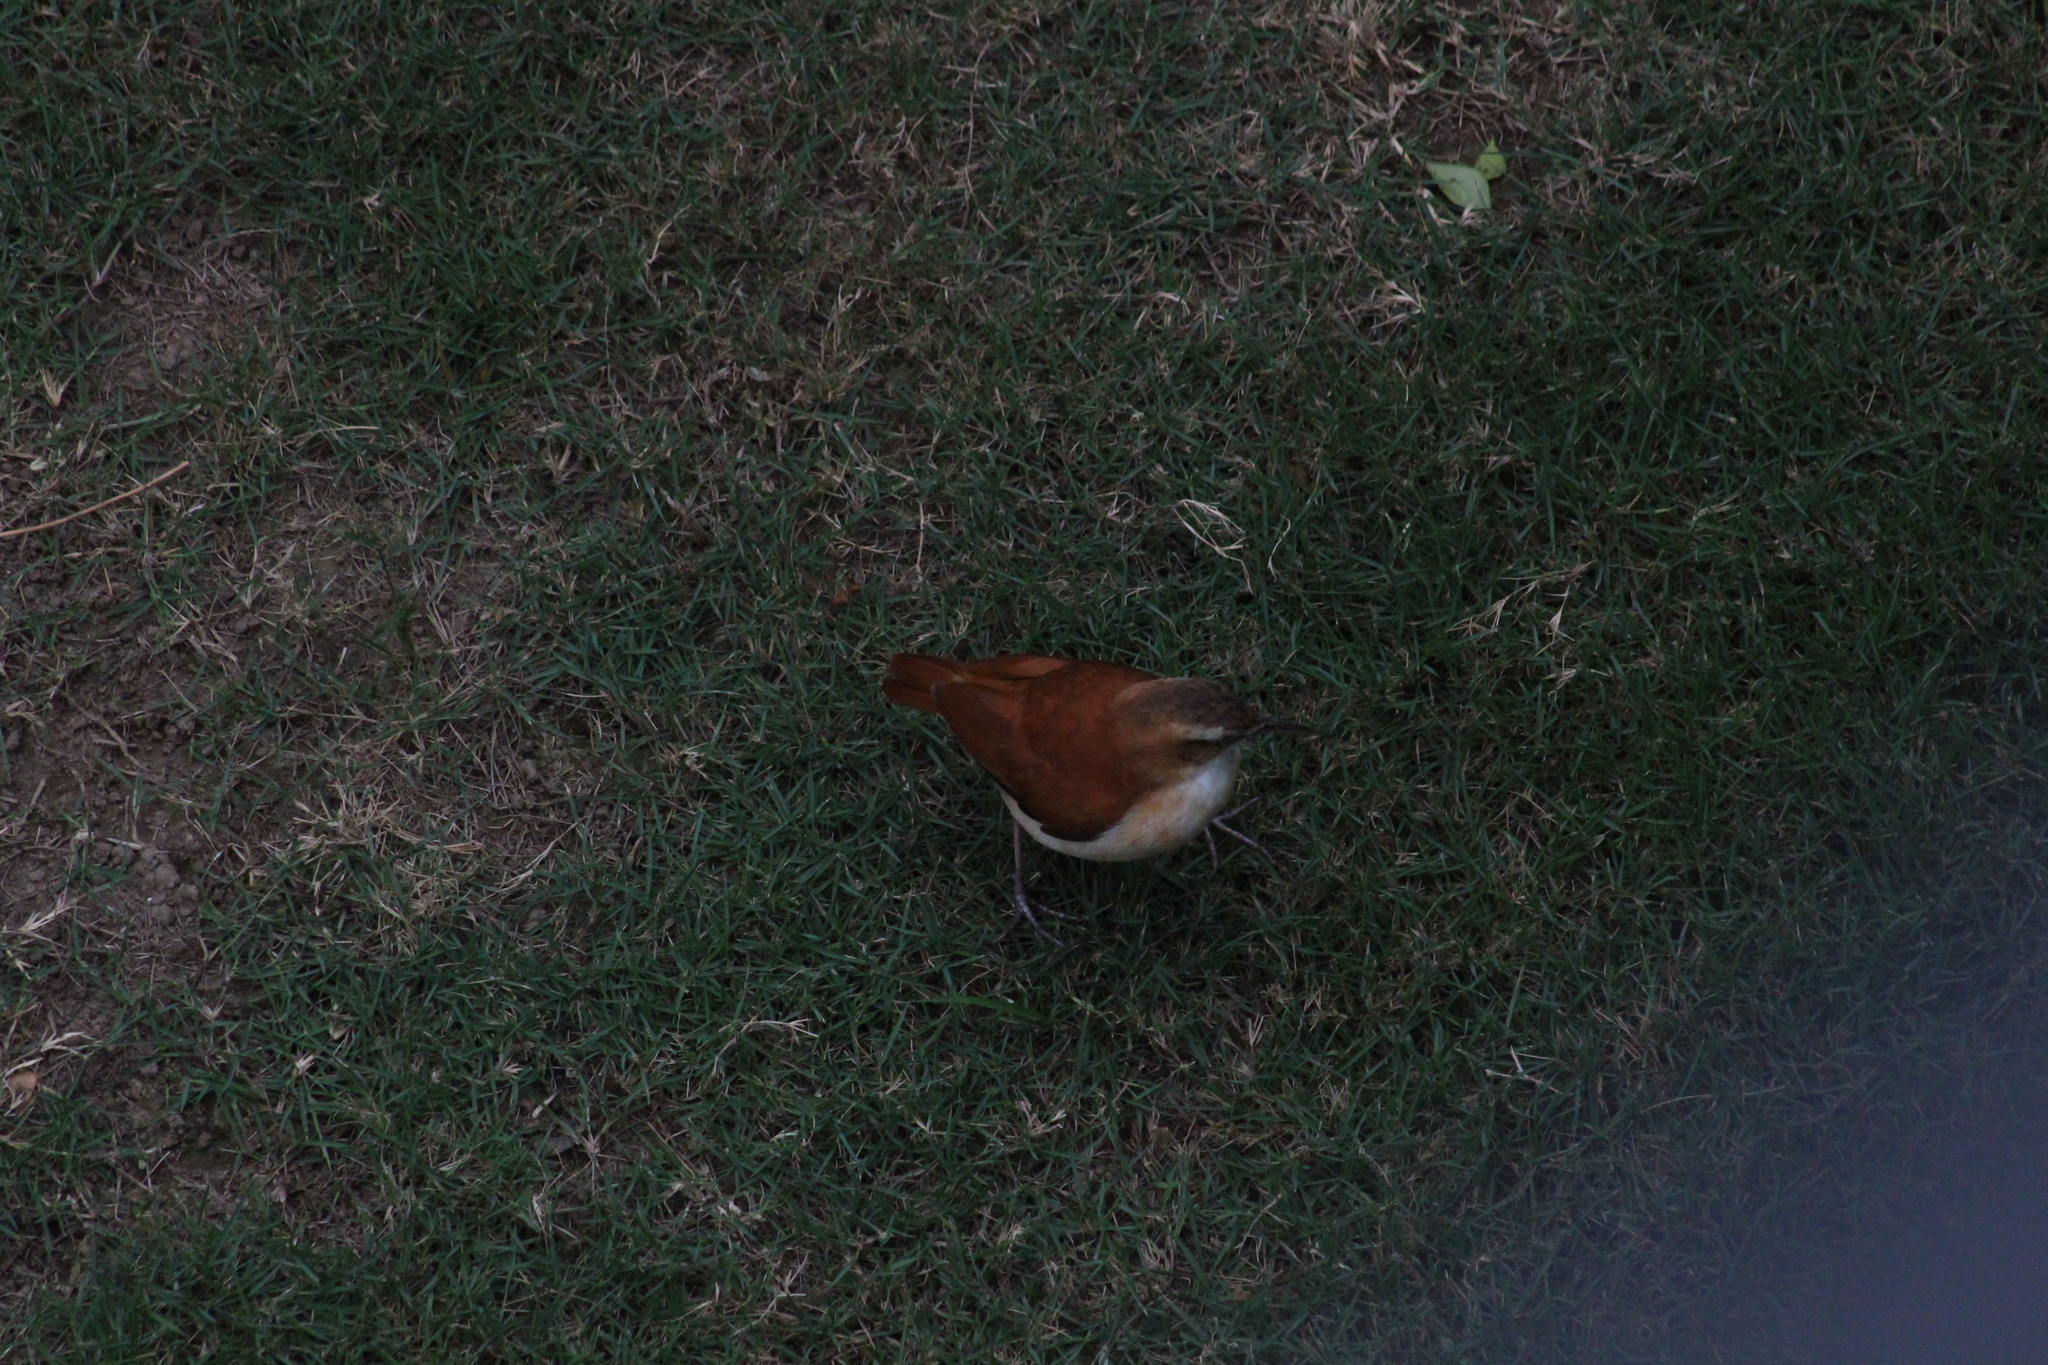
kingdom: Animalia
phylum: Chordata
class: Aves
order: Passeriformes
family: Furnariidae
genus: Furnarius
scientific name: Furnarius leucopus
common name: Pale-legged hornero
